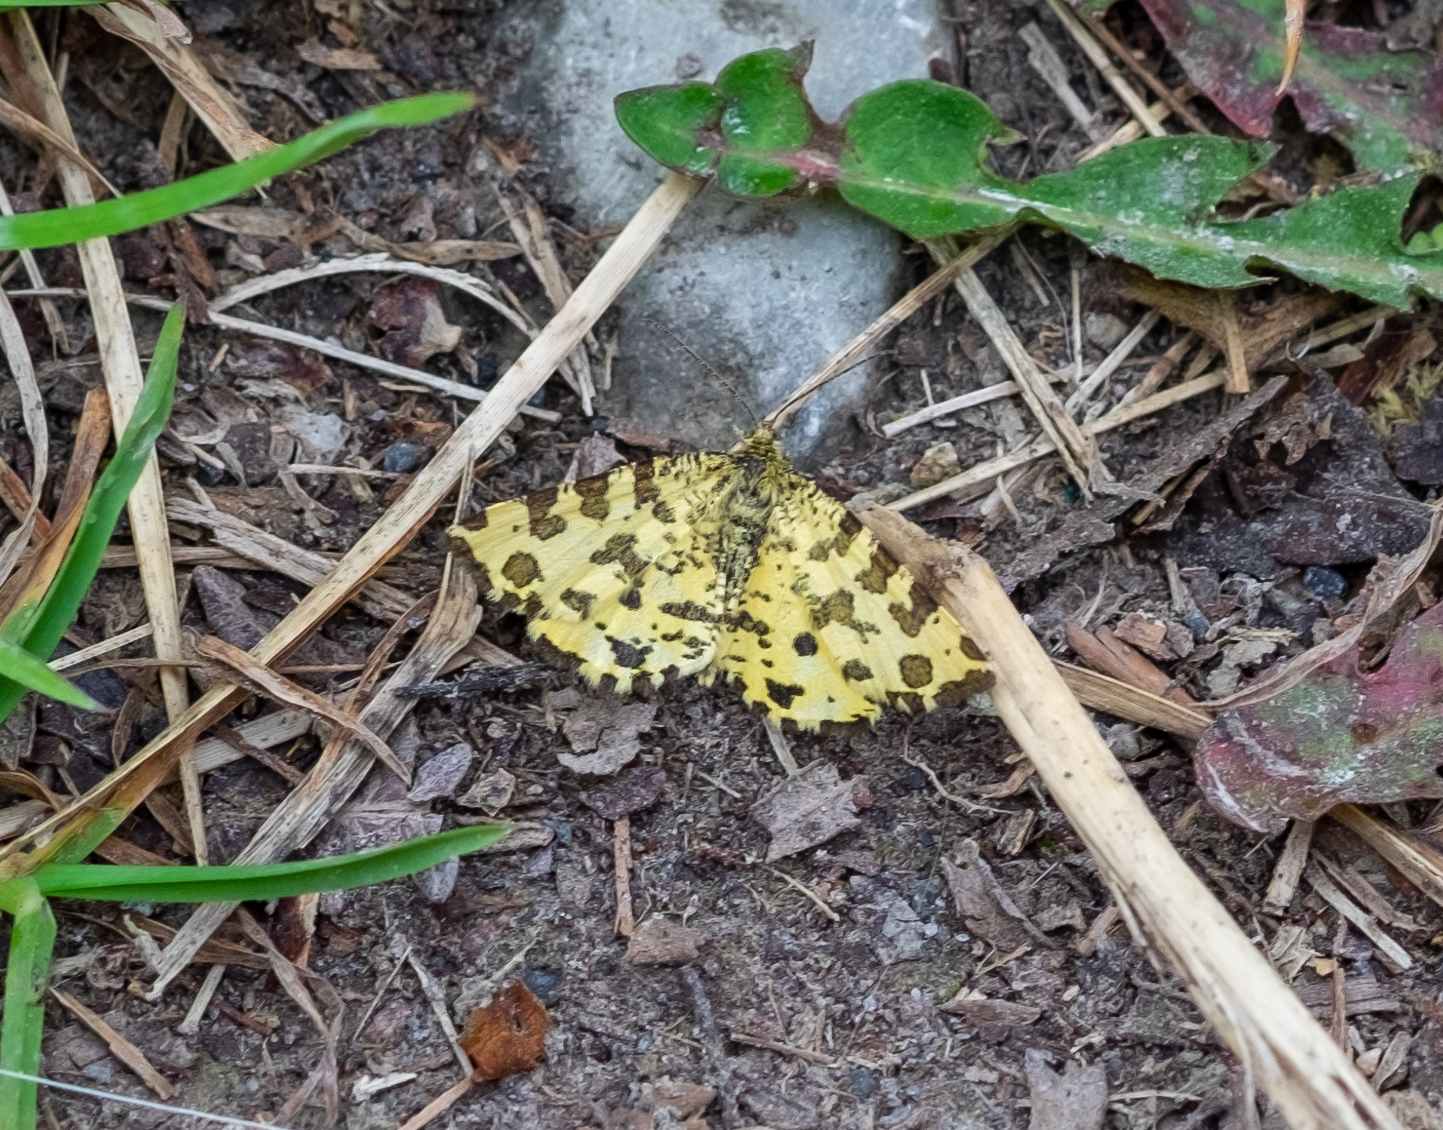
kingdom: Animalia
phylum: Arthropoda
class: Insecta
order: Lepidoptera
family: Geometridae
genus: Pseudopanthera
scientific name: Pseudopanthera macularia
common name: Speckled yellow
